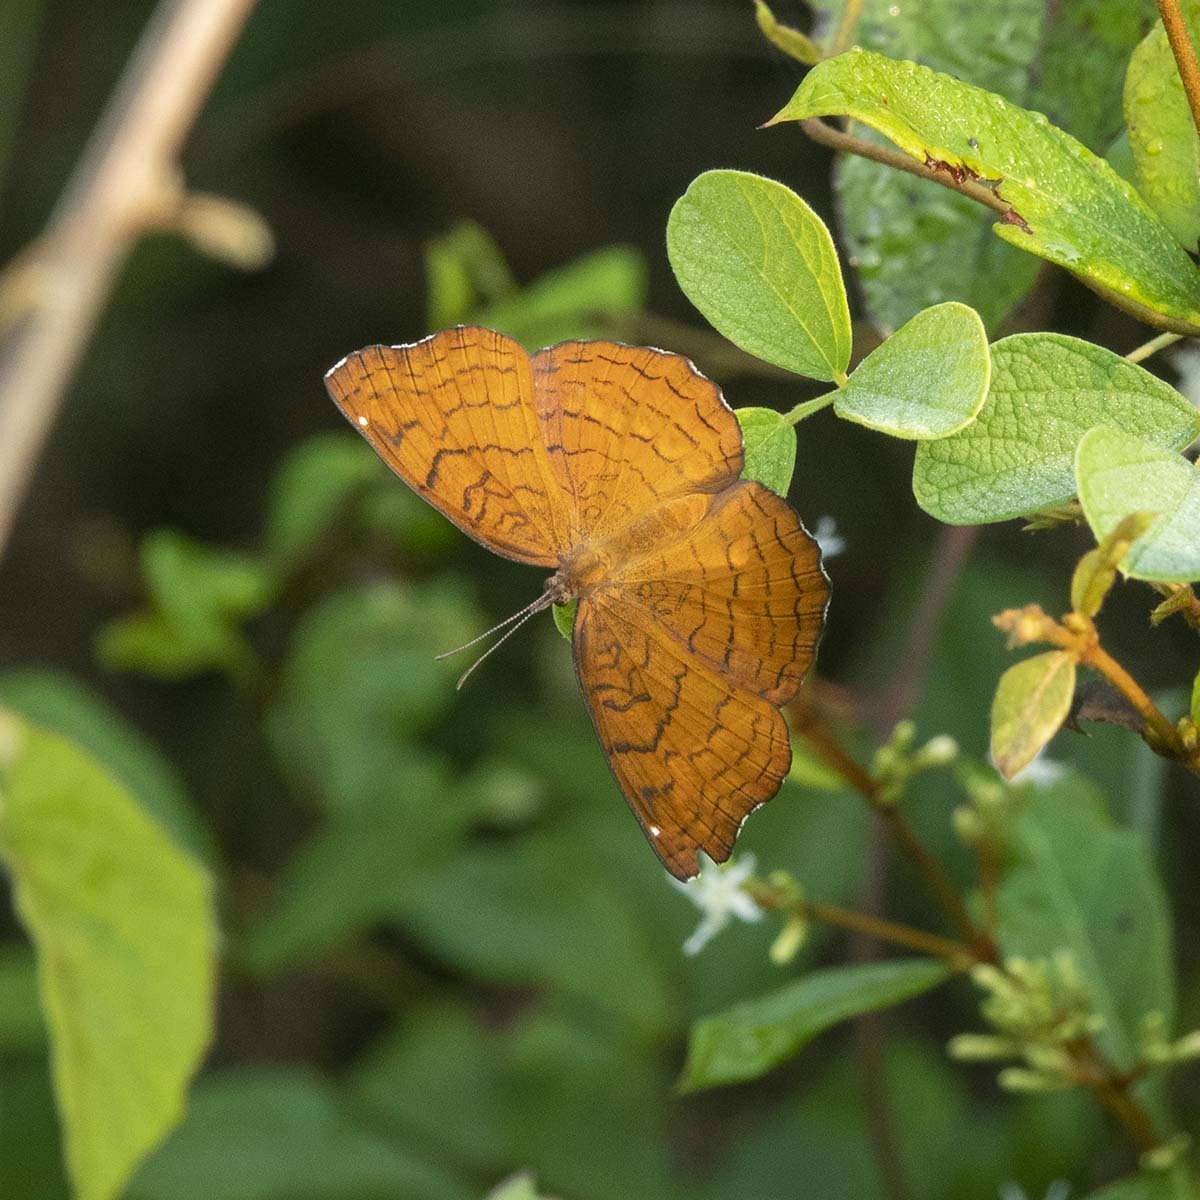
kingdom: Animalia
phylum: Arthropoda
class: Insecta
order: Lepidoptera
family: Nymphalidae
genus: Ariadne
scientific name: Ariadne ariadne
